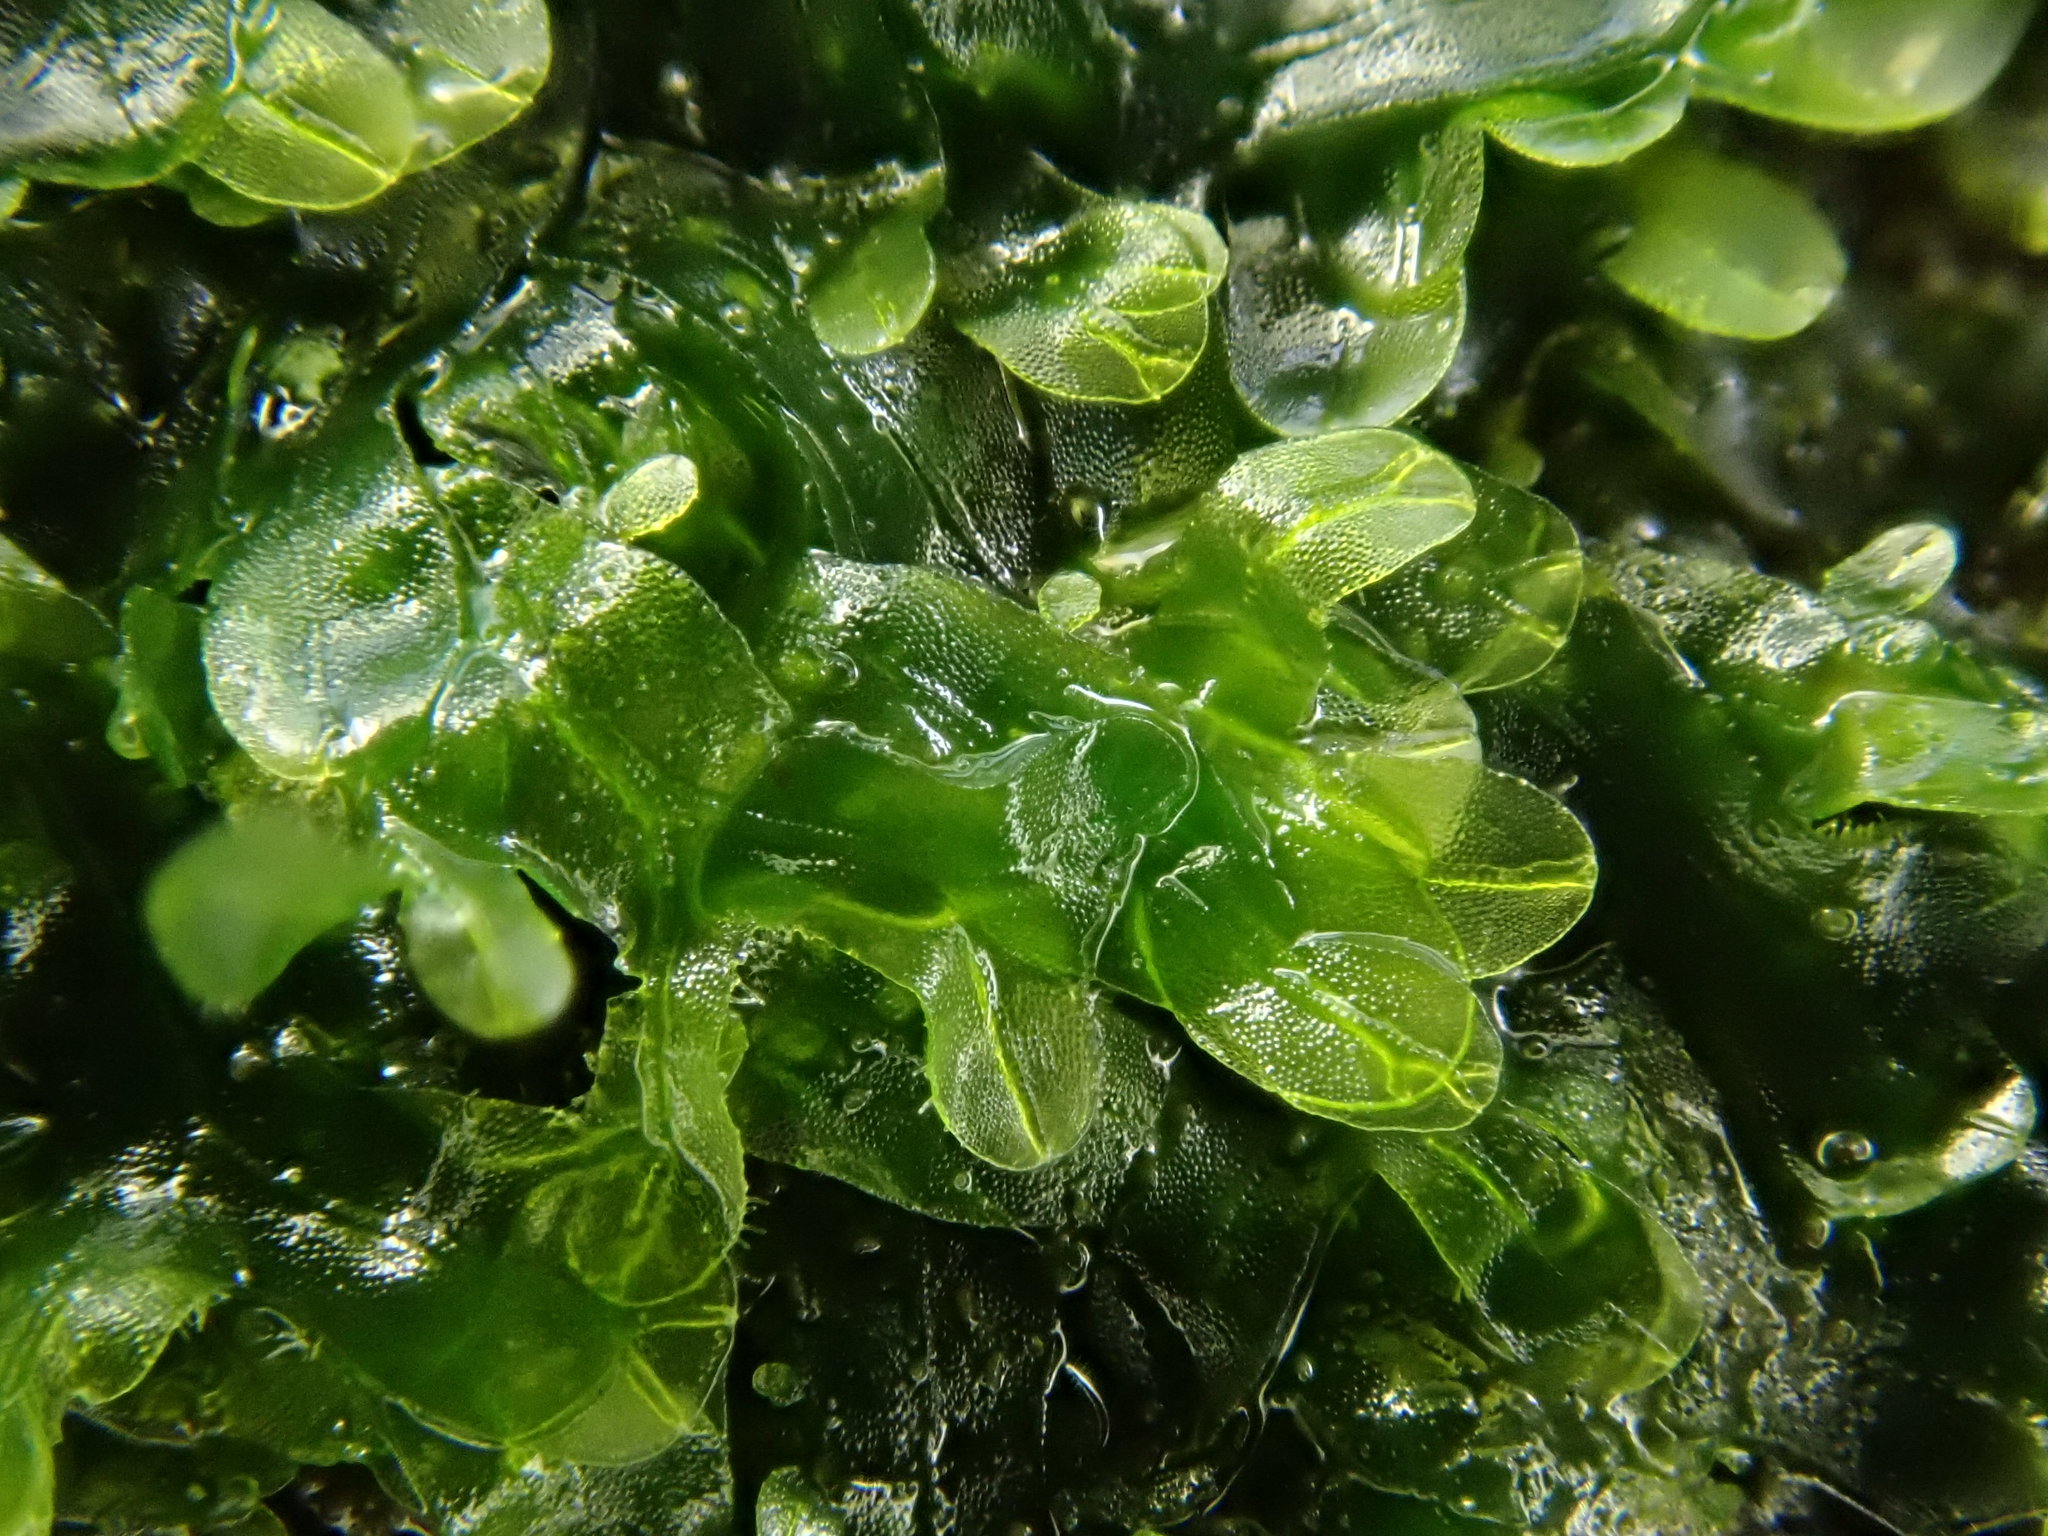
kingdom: Plantae
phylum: Marchantiophyta
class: Jungermanniopsida
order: Metzgeriales
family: Metzgeriaceae
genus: Metzgeria
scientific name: Metzgeria furcata
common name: Forked veilwort
